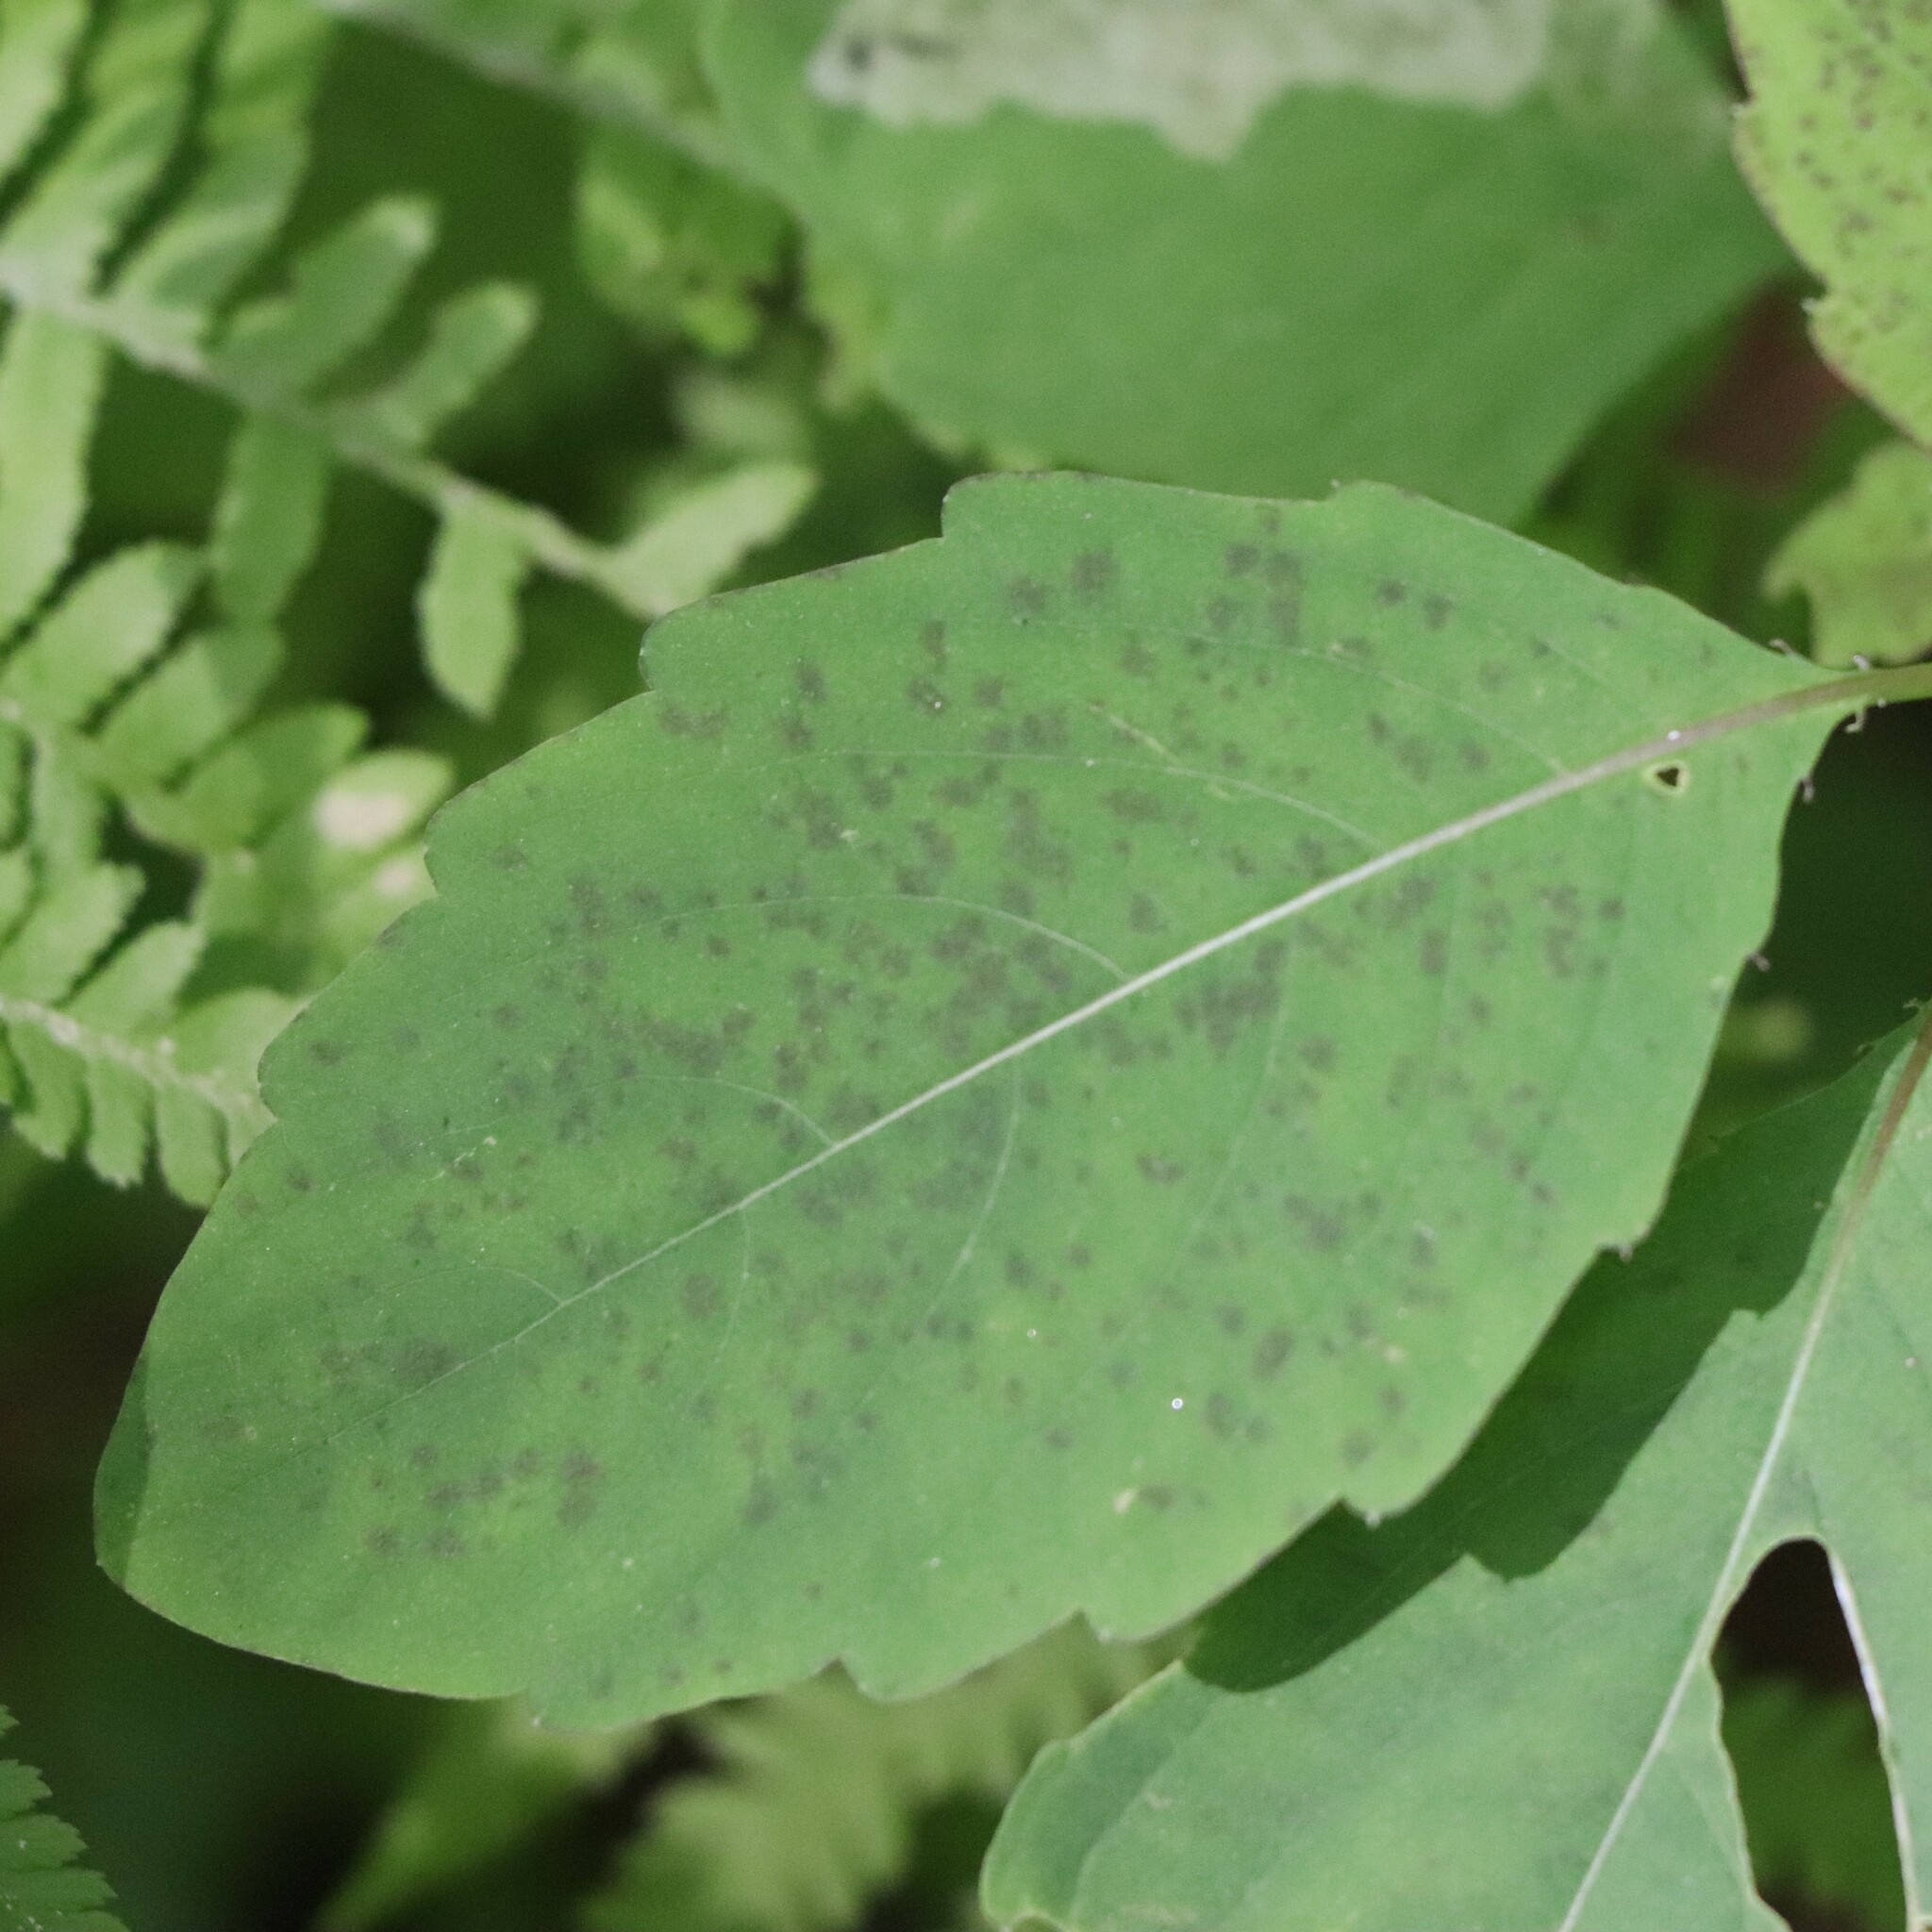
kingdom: Plantae
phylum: Tracheophyta
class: Magnoliopsida
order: Ericales
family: Balsaminaceae
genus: Impatiens
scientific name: Impatiens capensis
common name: Orange balsam
